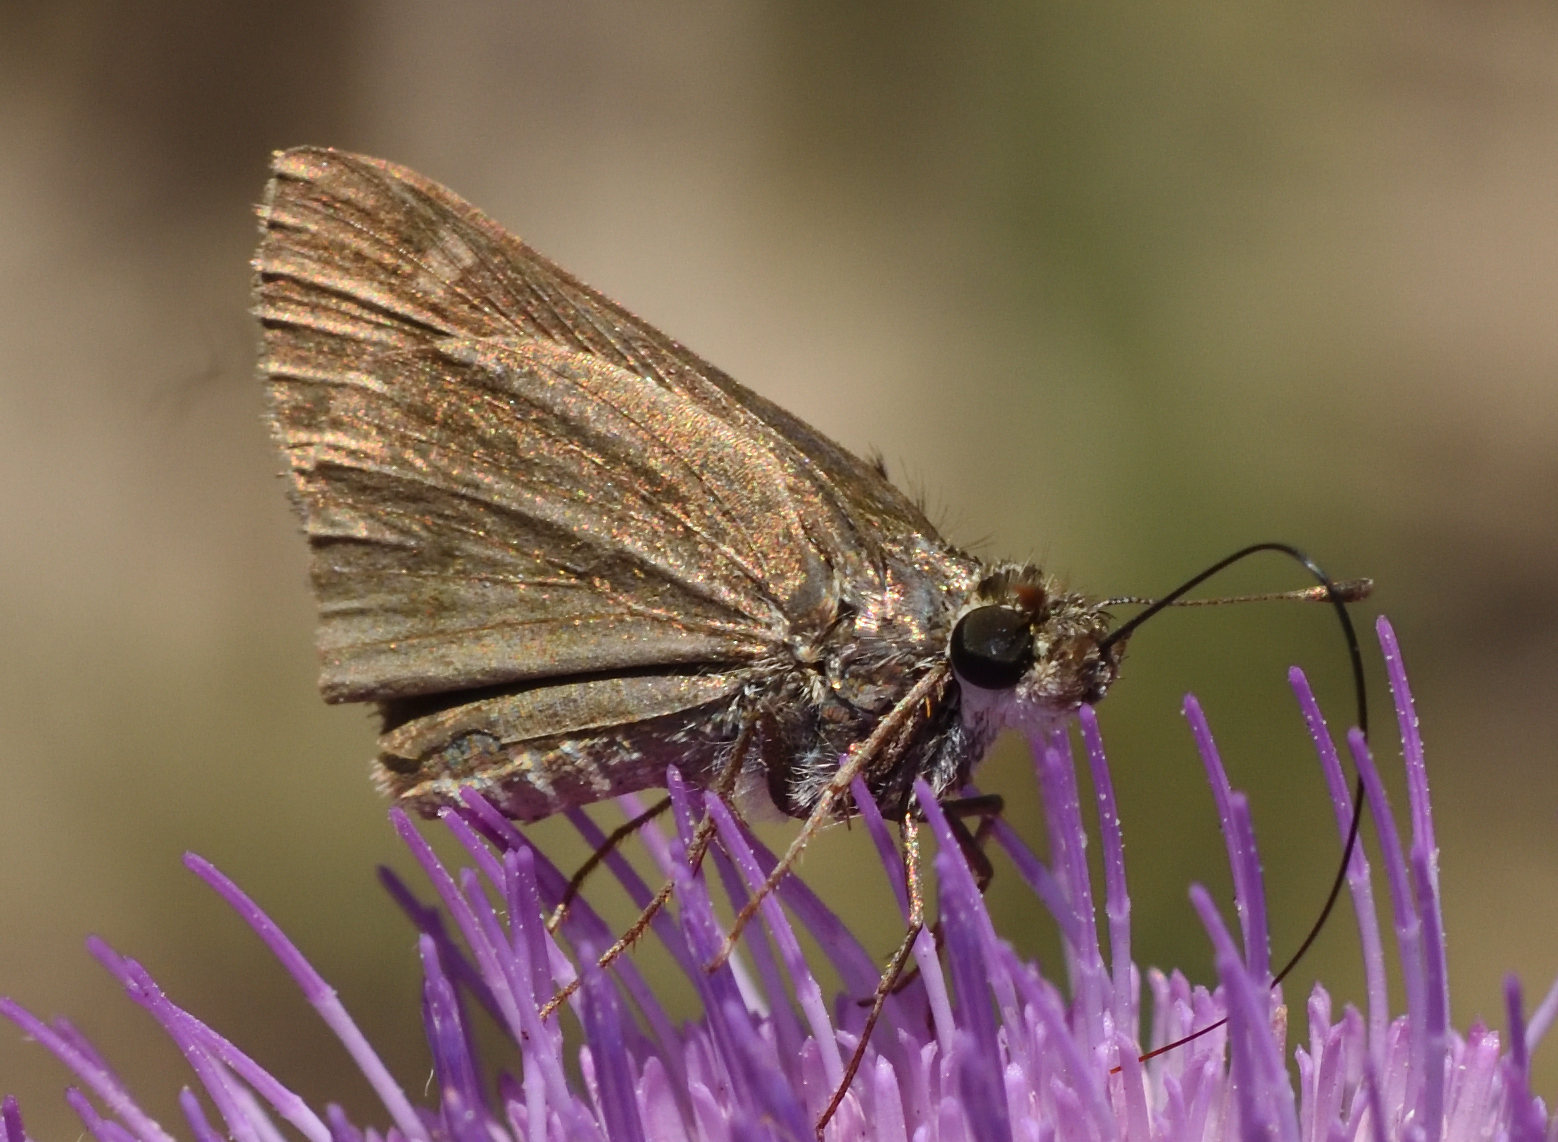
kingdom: Animalia
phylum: Arthropoda
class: Insecta
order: Lepidoptera
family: Hesperiidae
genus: Polites
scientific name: Polites vibex
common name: Whirlabout
